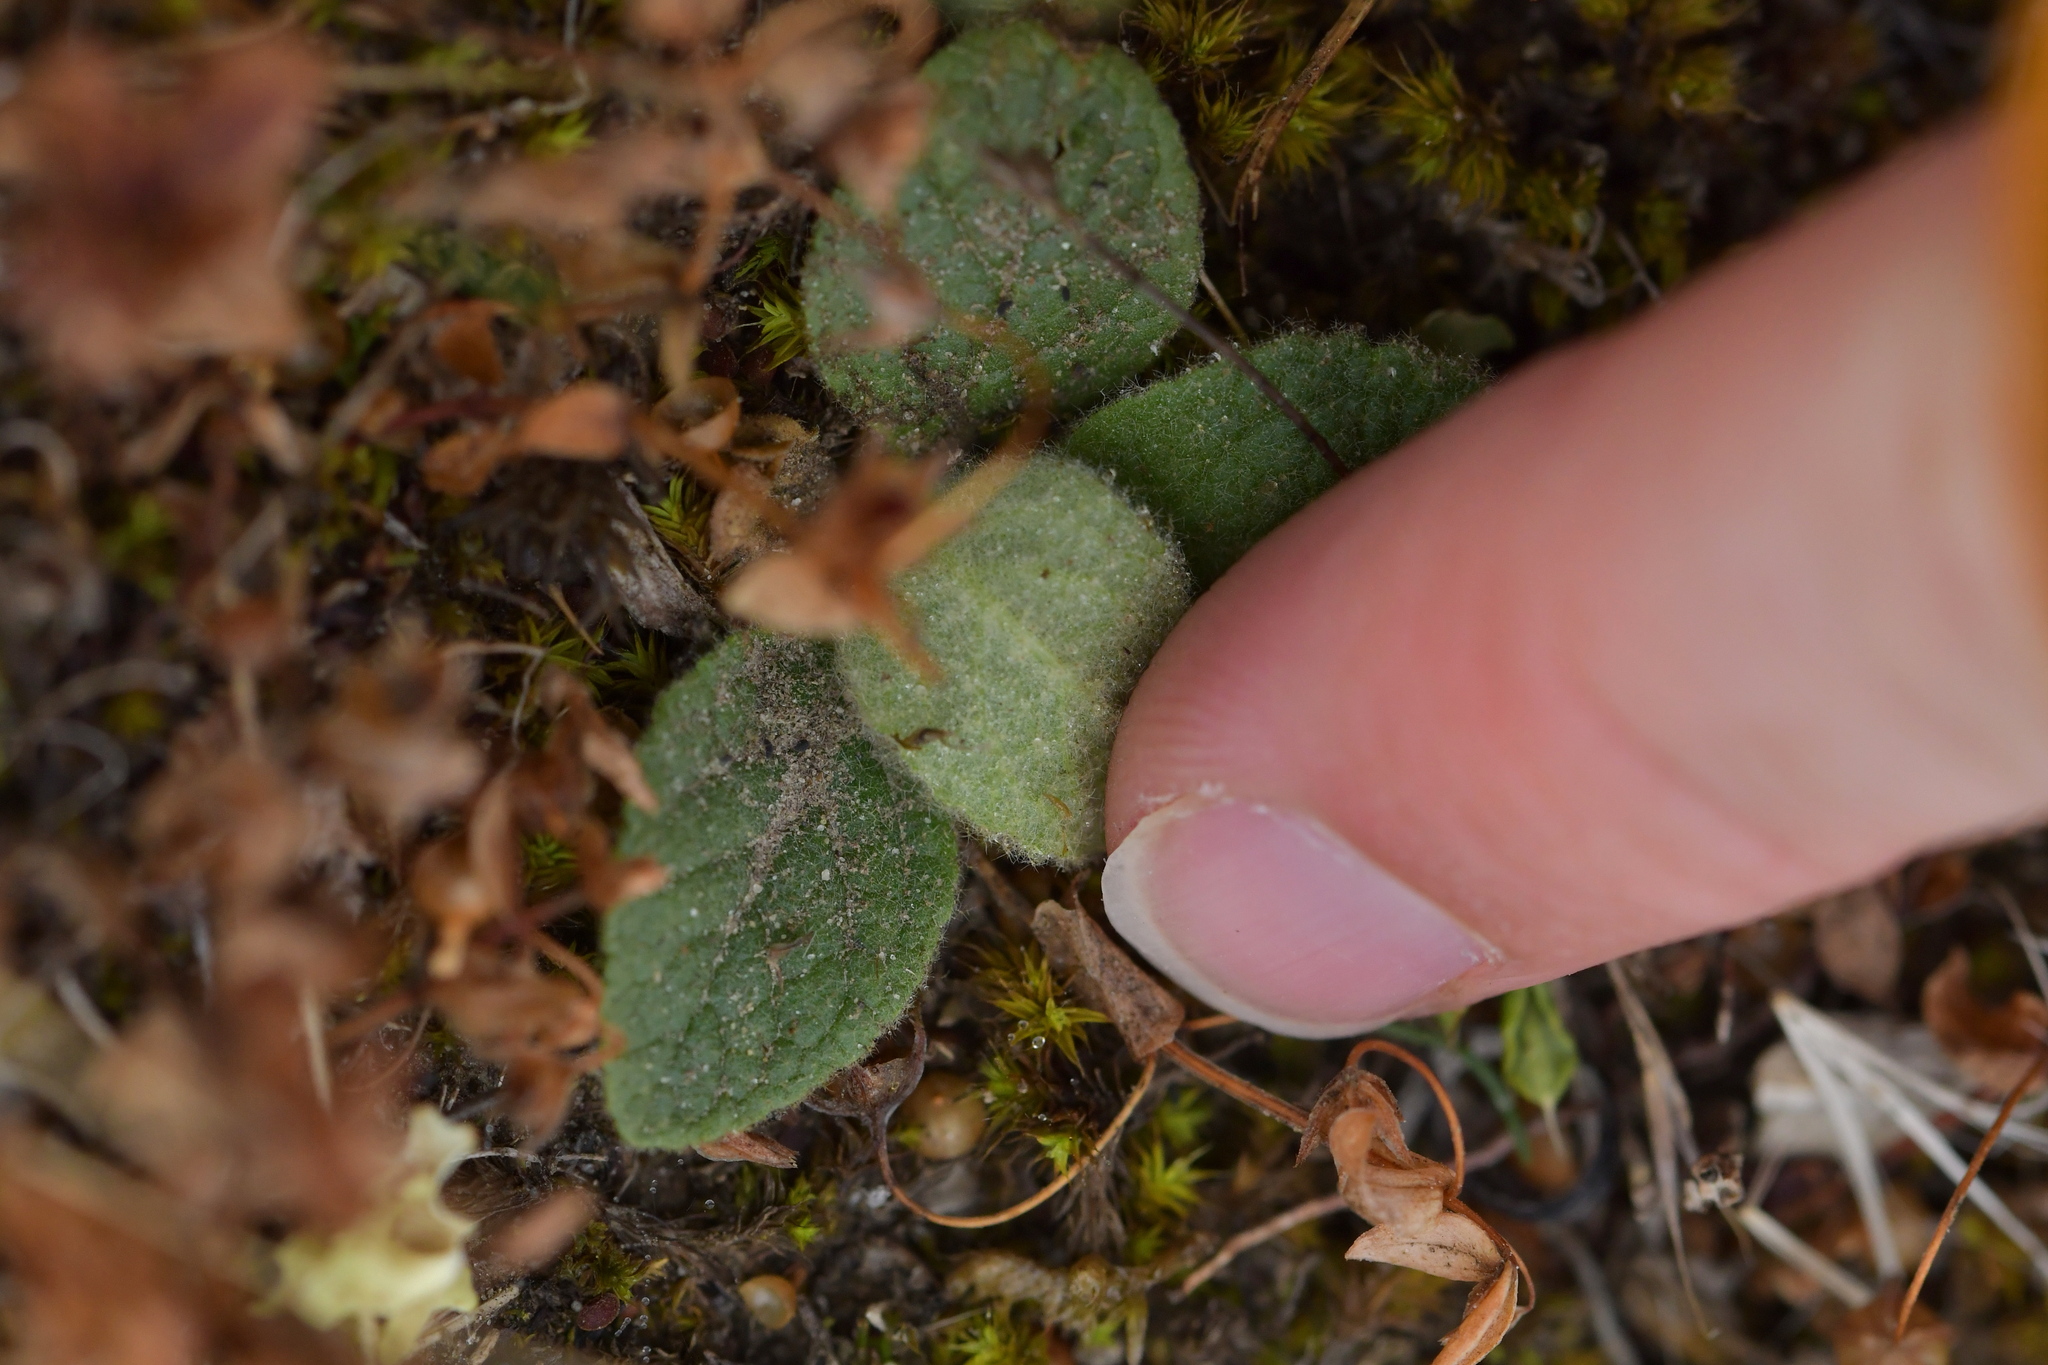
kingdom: Plantae
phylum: Tracheophyta
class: Magnoliopsida
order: Lamiales
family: Scrophulariaceae
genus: Verbascum
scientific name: Verbascum thapsus
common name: Common mullein
